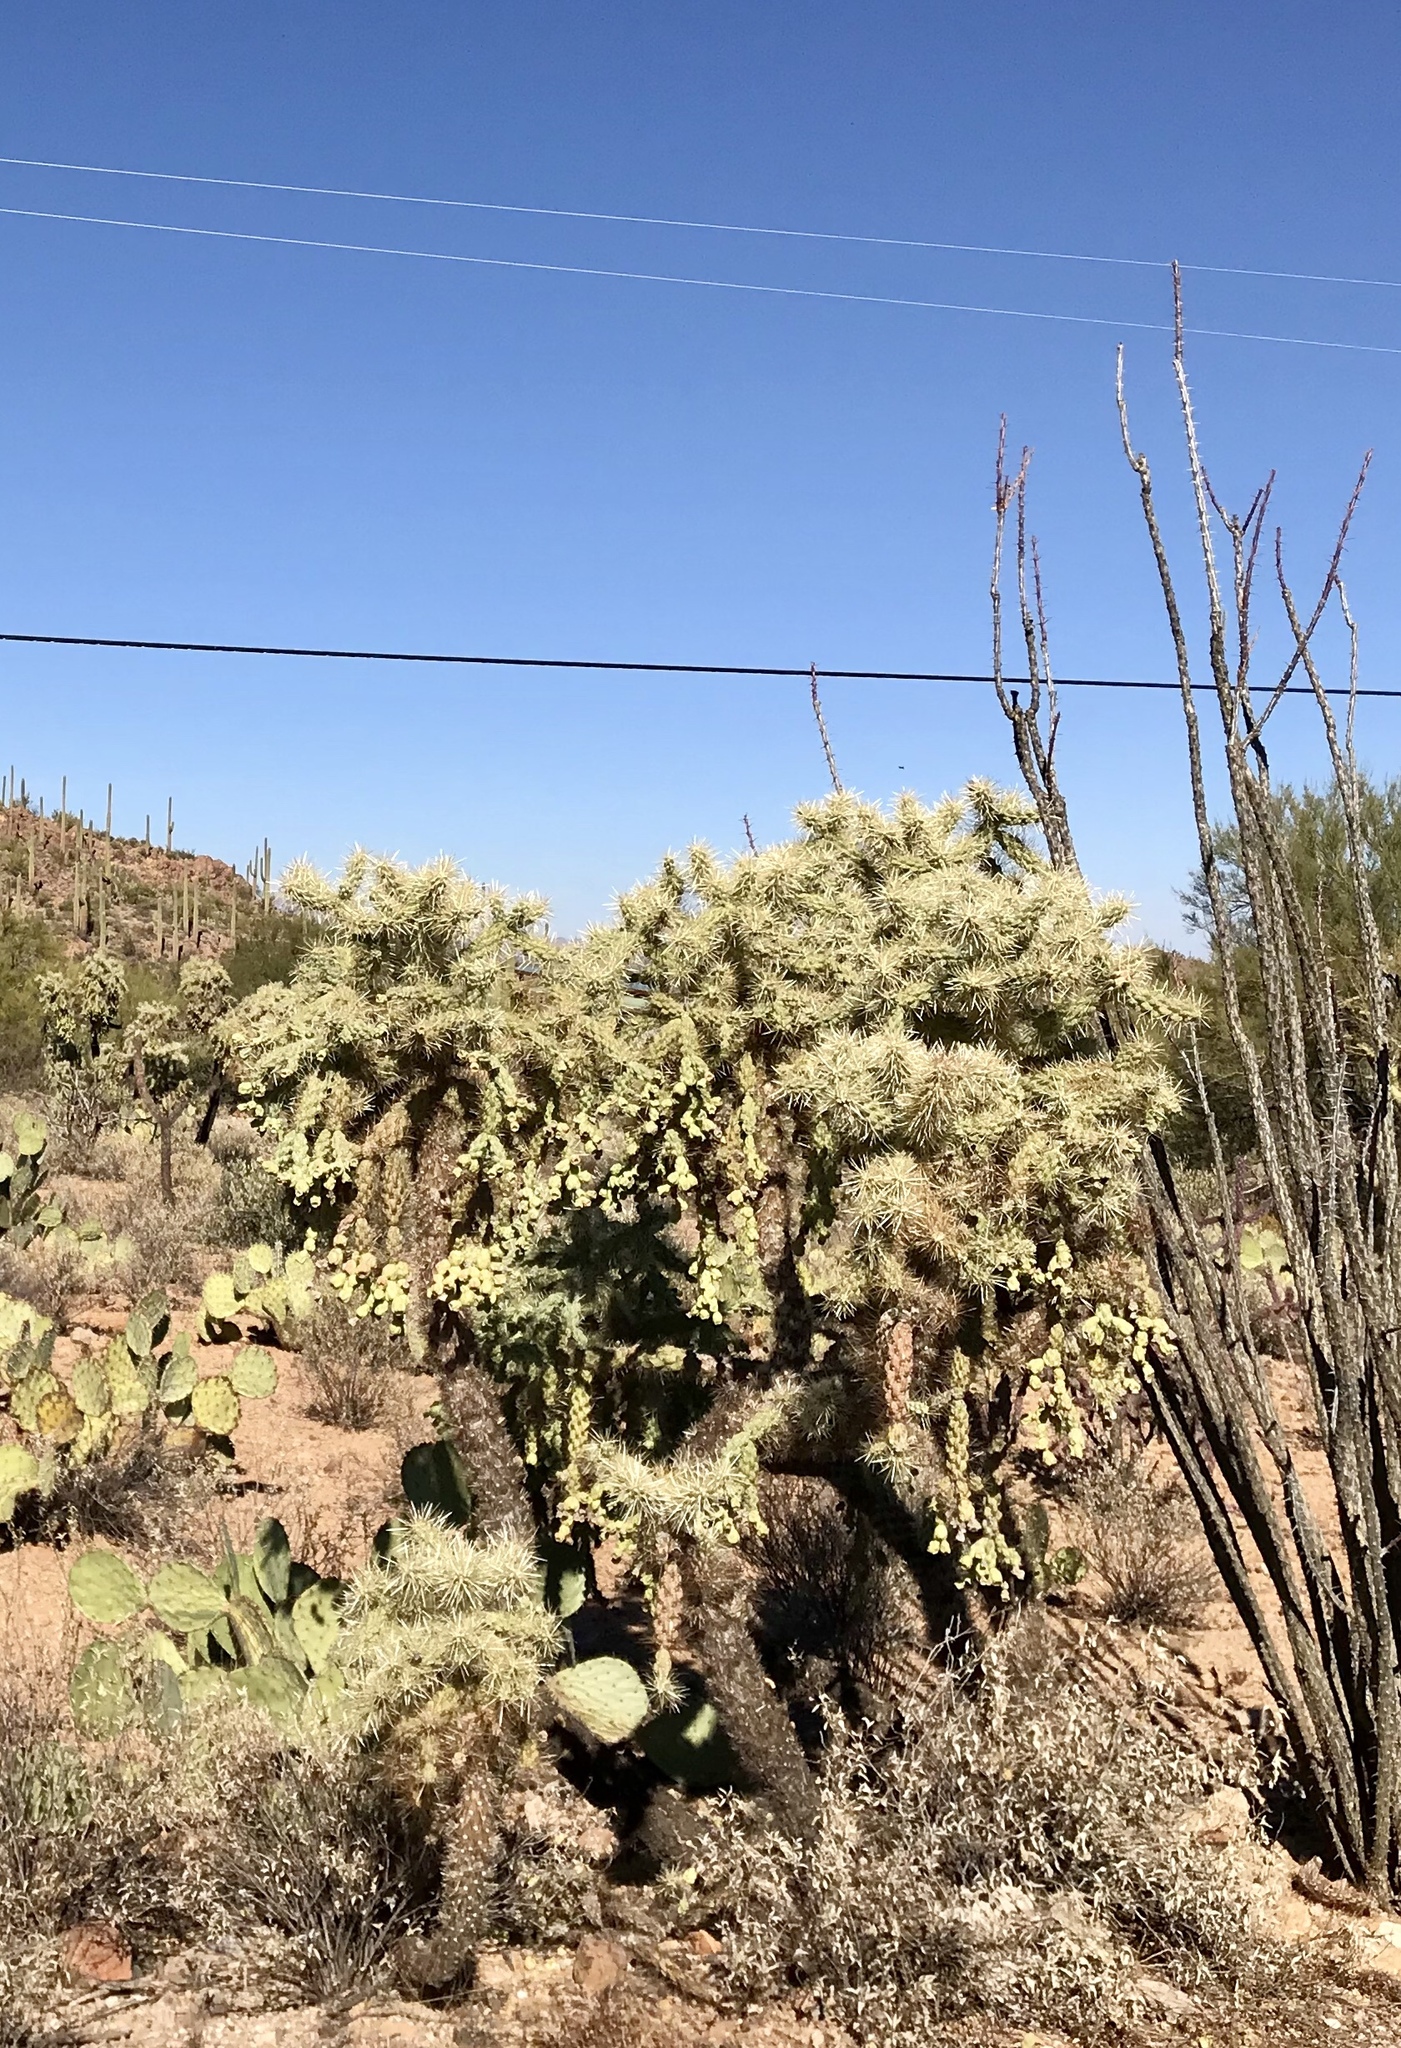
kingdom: Plantae
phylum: Tracheophyta
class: Magnoliopsida
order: Caryophyllales
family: Cactaceae
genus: Cylindropuntia
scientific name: Cylindropuntia fulgida
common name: Jumping cholla
